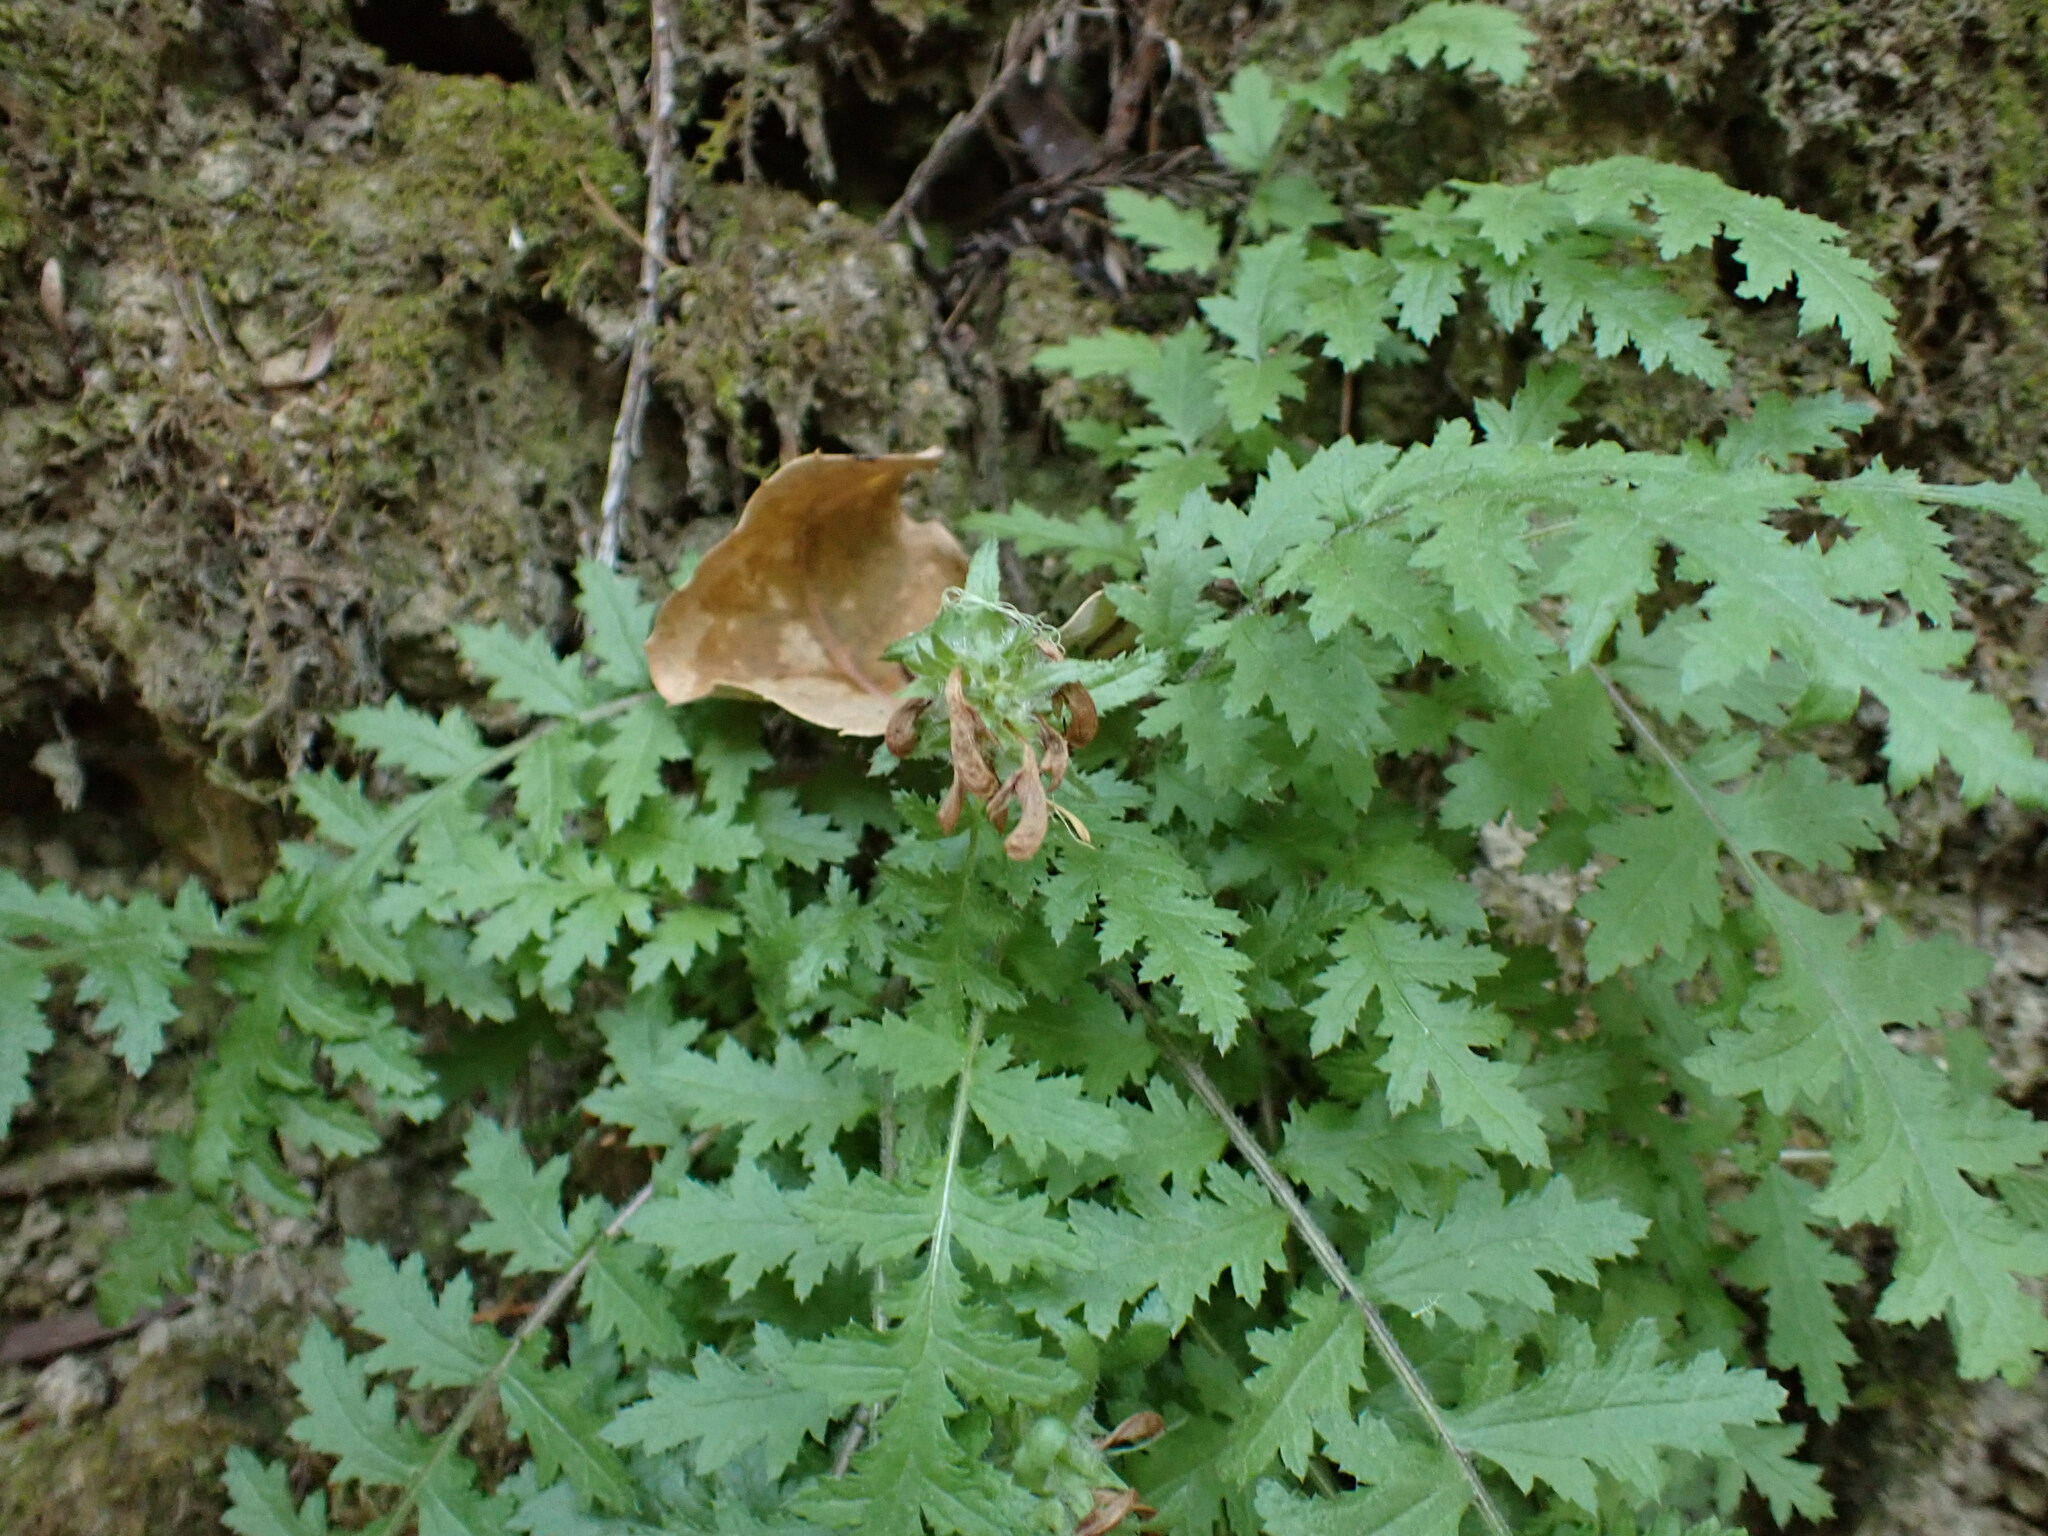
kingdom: Plantae
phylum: Tracheophyta
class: Magnoliopsida
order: Lamiales
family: Orobanchaceae
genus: Pedicularis
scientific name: Pedicularis dudleyi
